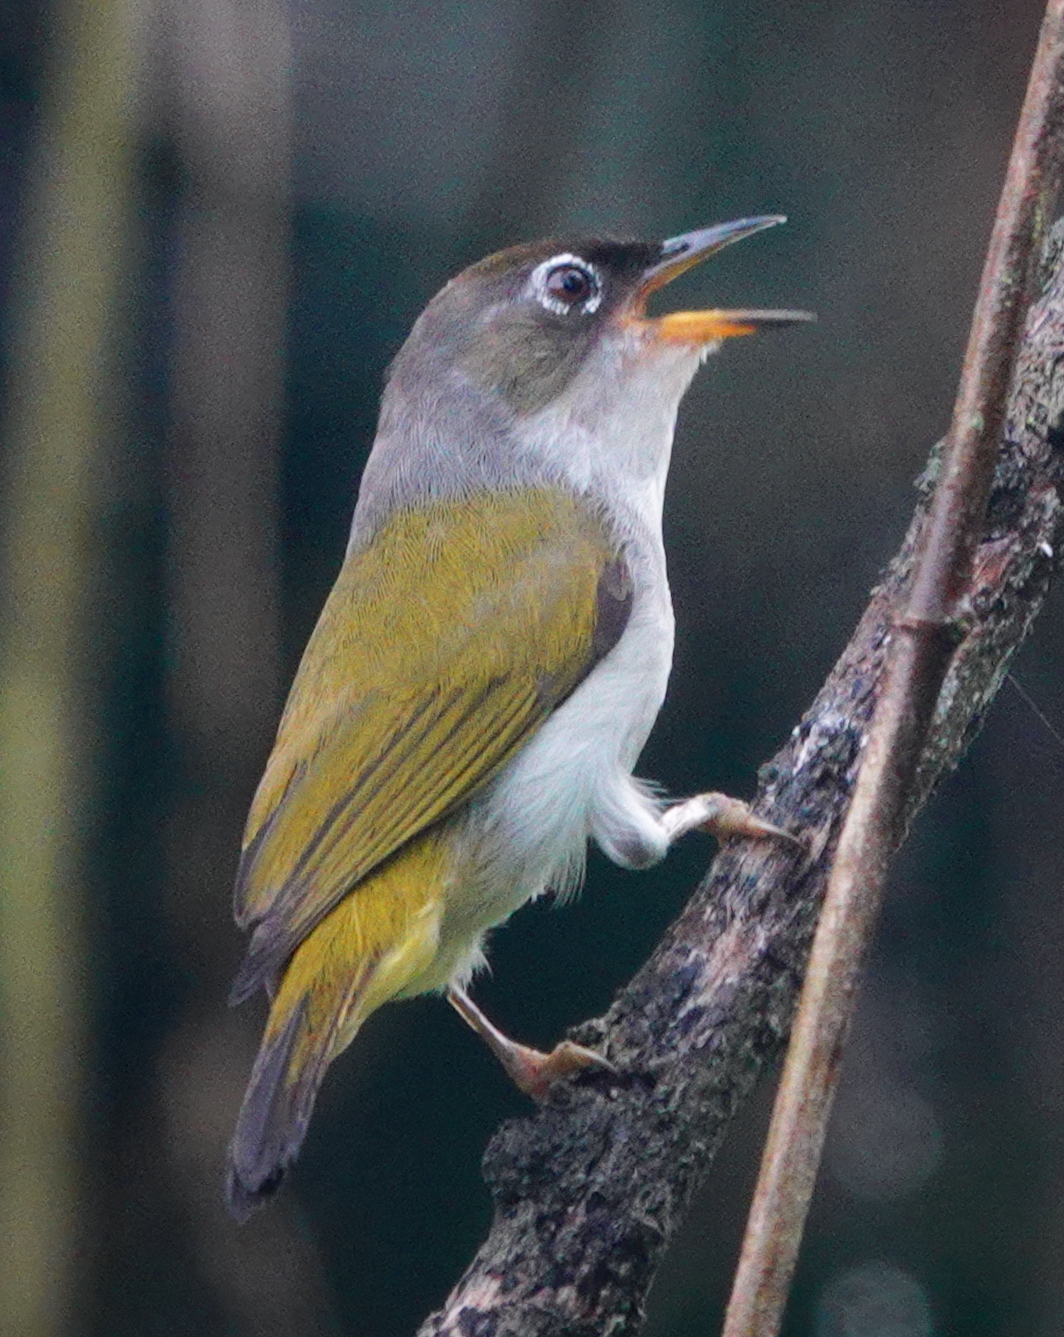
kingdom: Animalia
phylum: Chordata
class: Aves
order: Passeriformes
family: Zosteropidae
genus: Zosterops
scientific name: Zosterops atriceps
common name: Cream-throated white-eye
